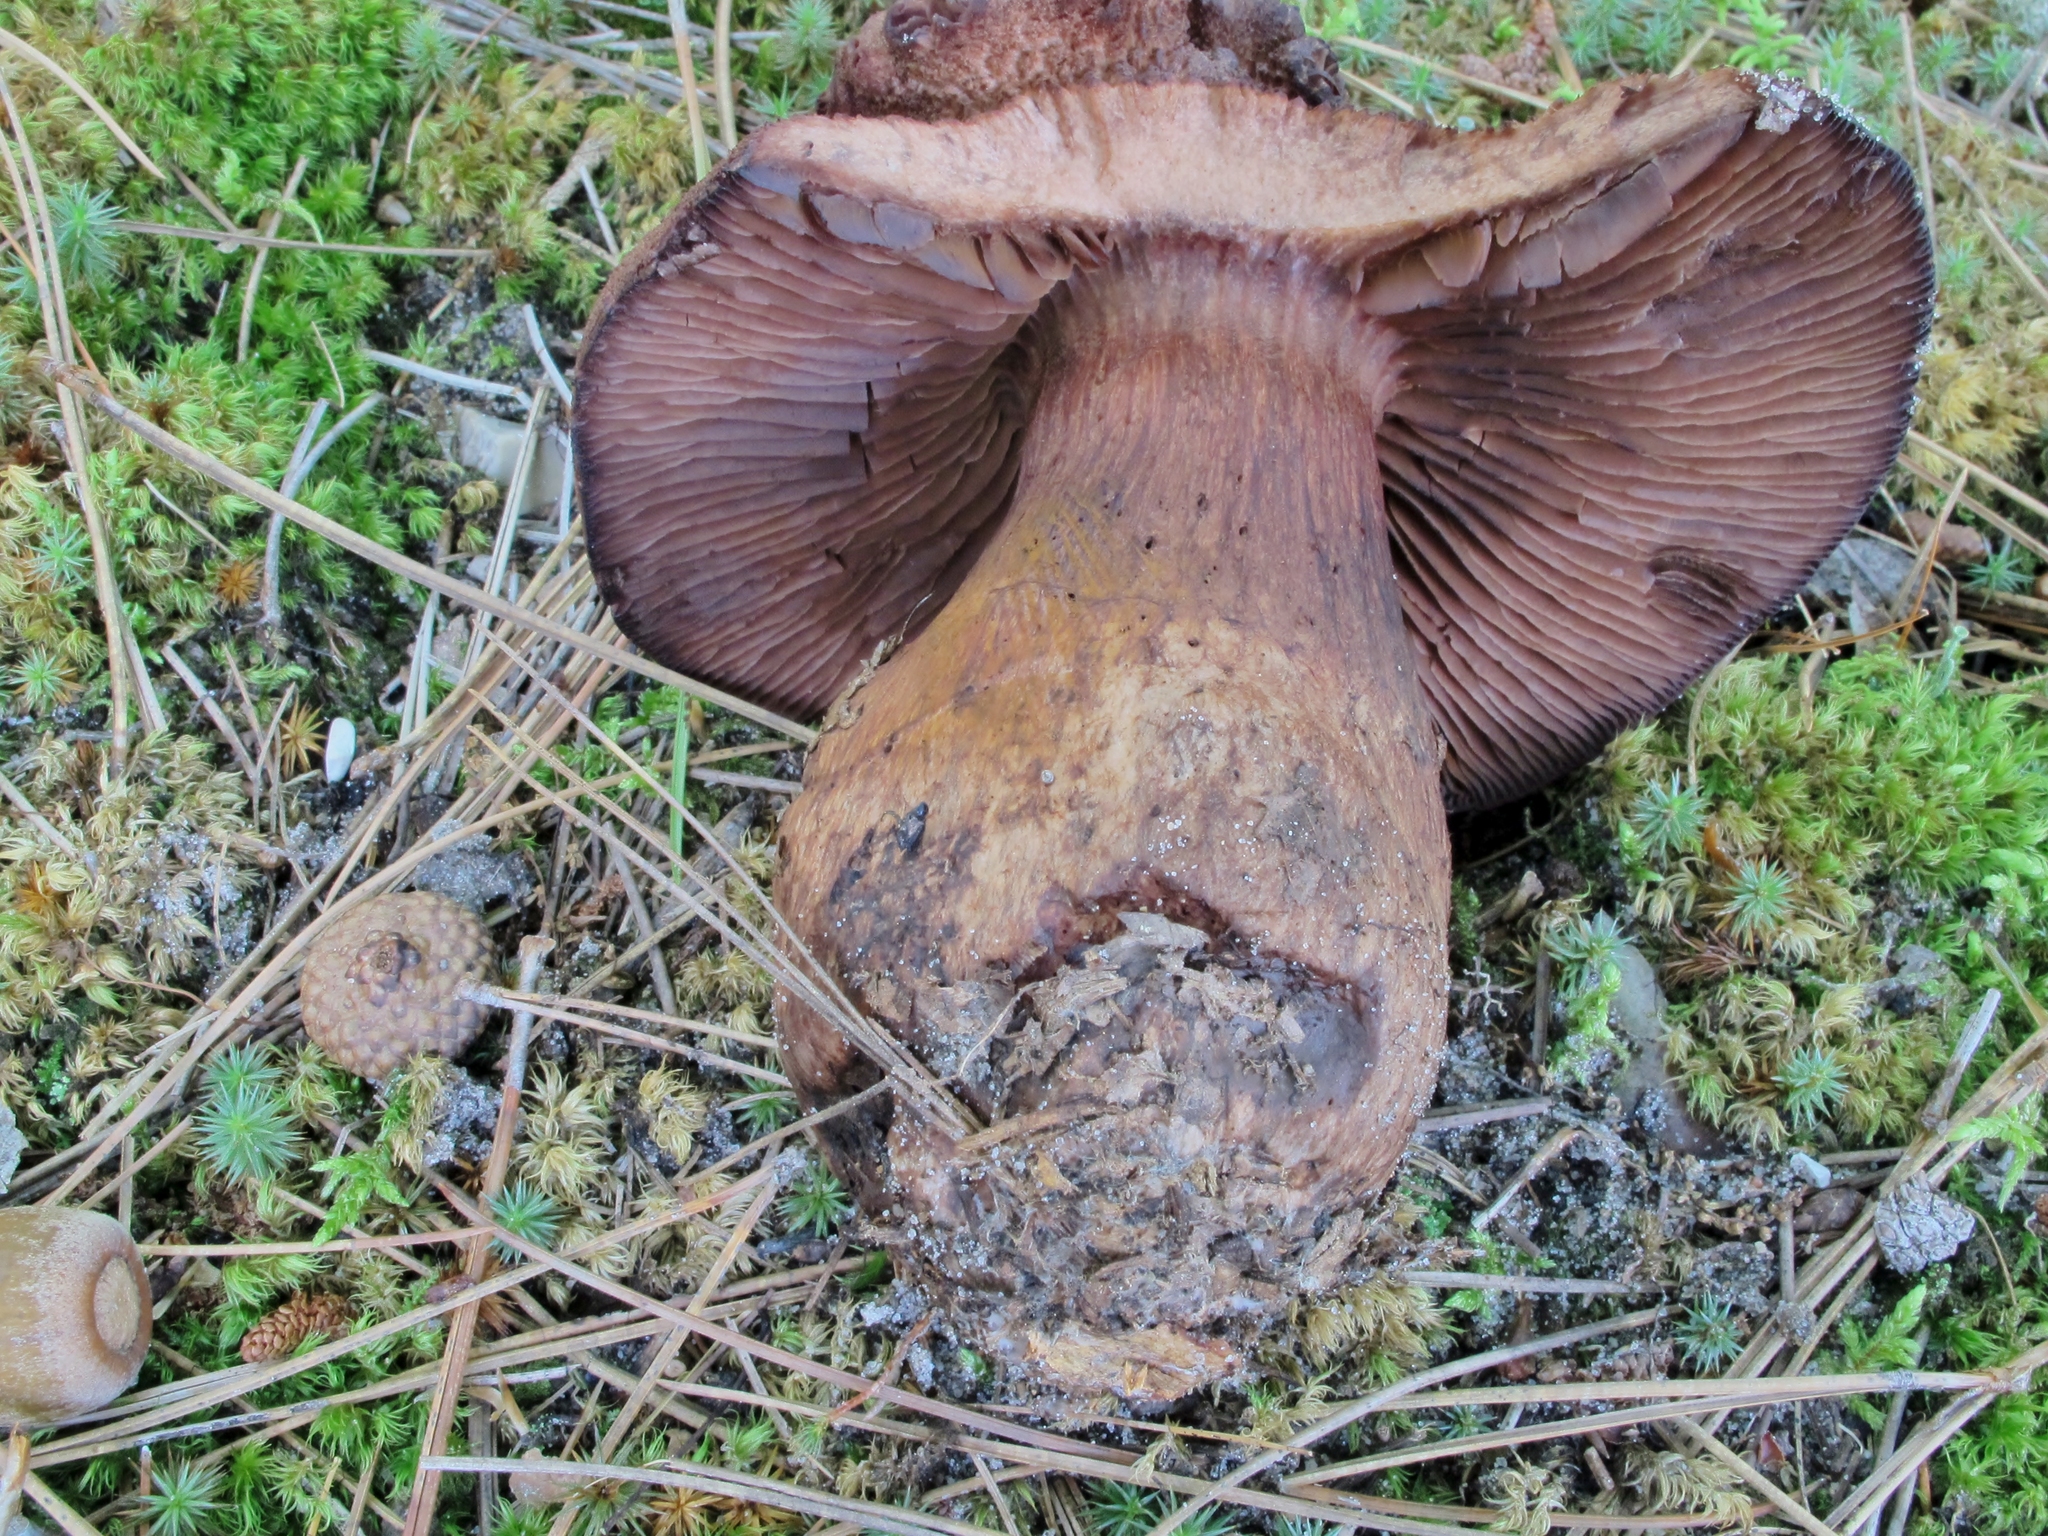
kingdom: Fungi
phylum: Basidiomycota
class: Agaricomycetes
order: Agaricales
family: Cortinariaceae
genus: Cortinarius
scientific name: Cortinarius squamulosus
